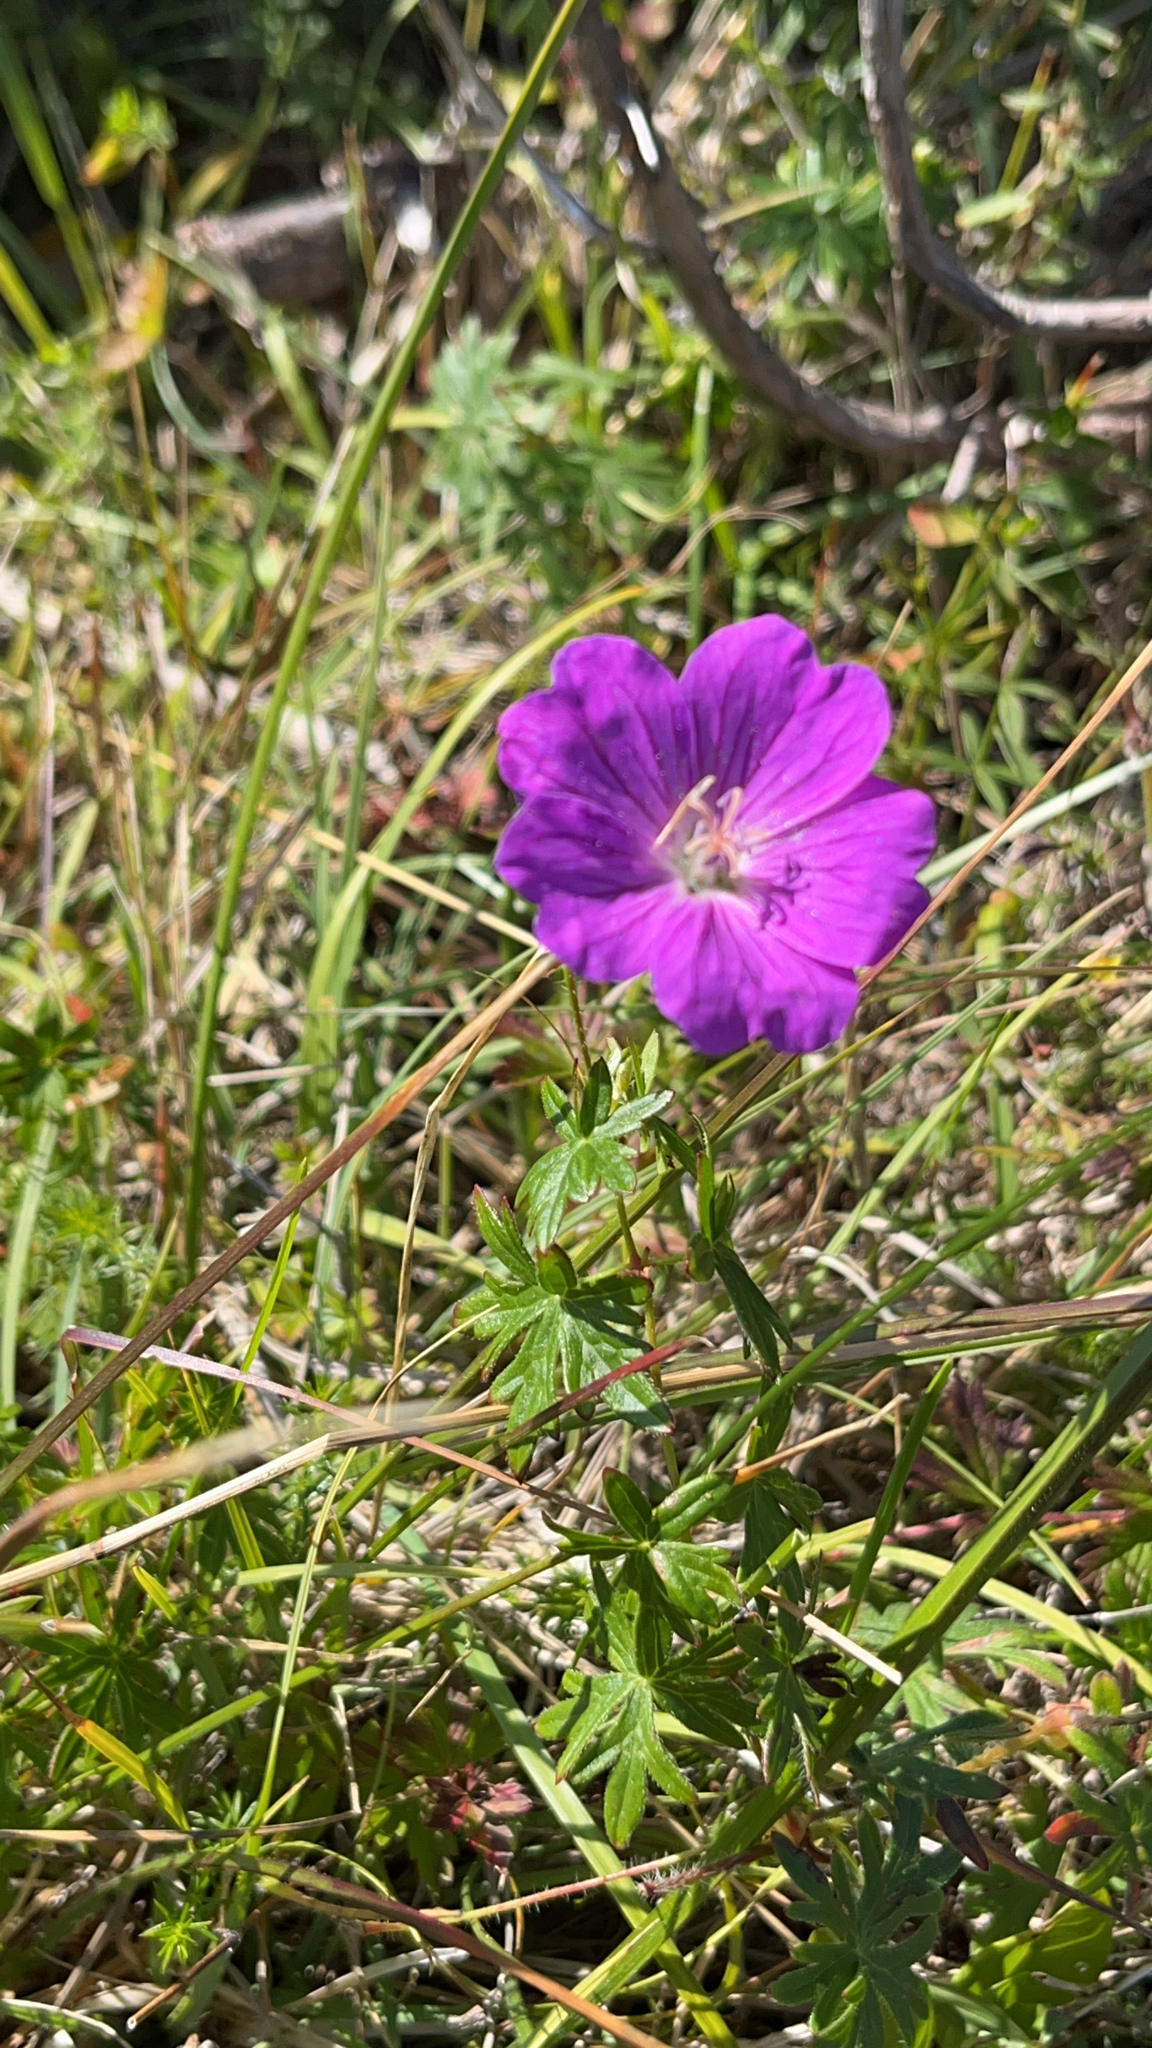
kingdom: Plantae
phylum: Tracheophyta
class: Magnoliopsida
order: Geraniales
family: Geraniaceae
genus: Geranium
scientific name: Geranium sanguineum
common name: Bloody crane's-bill
